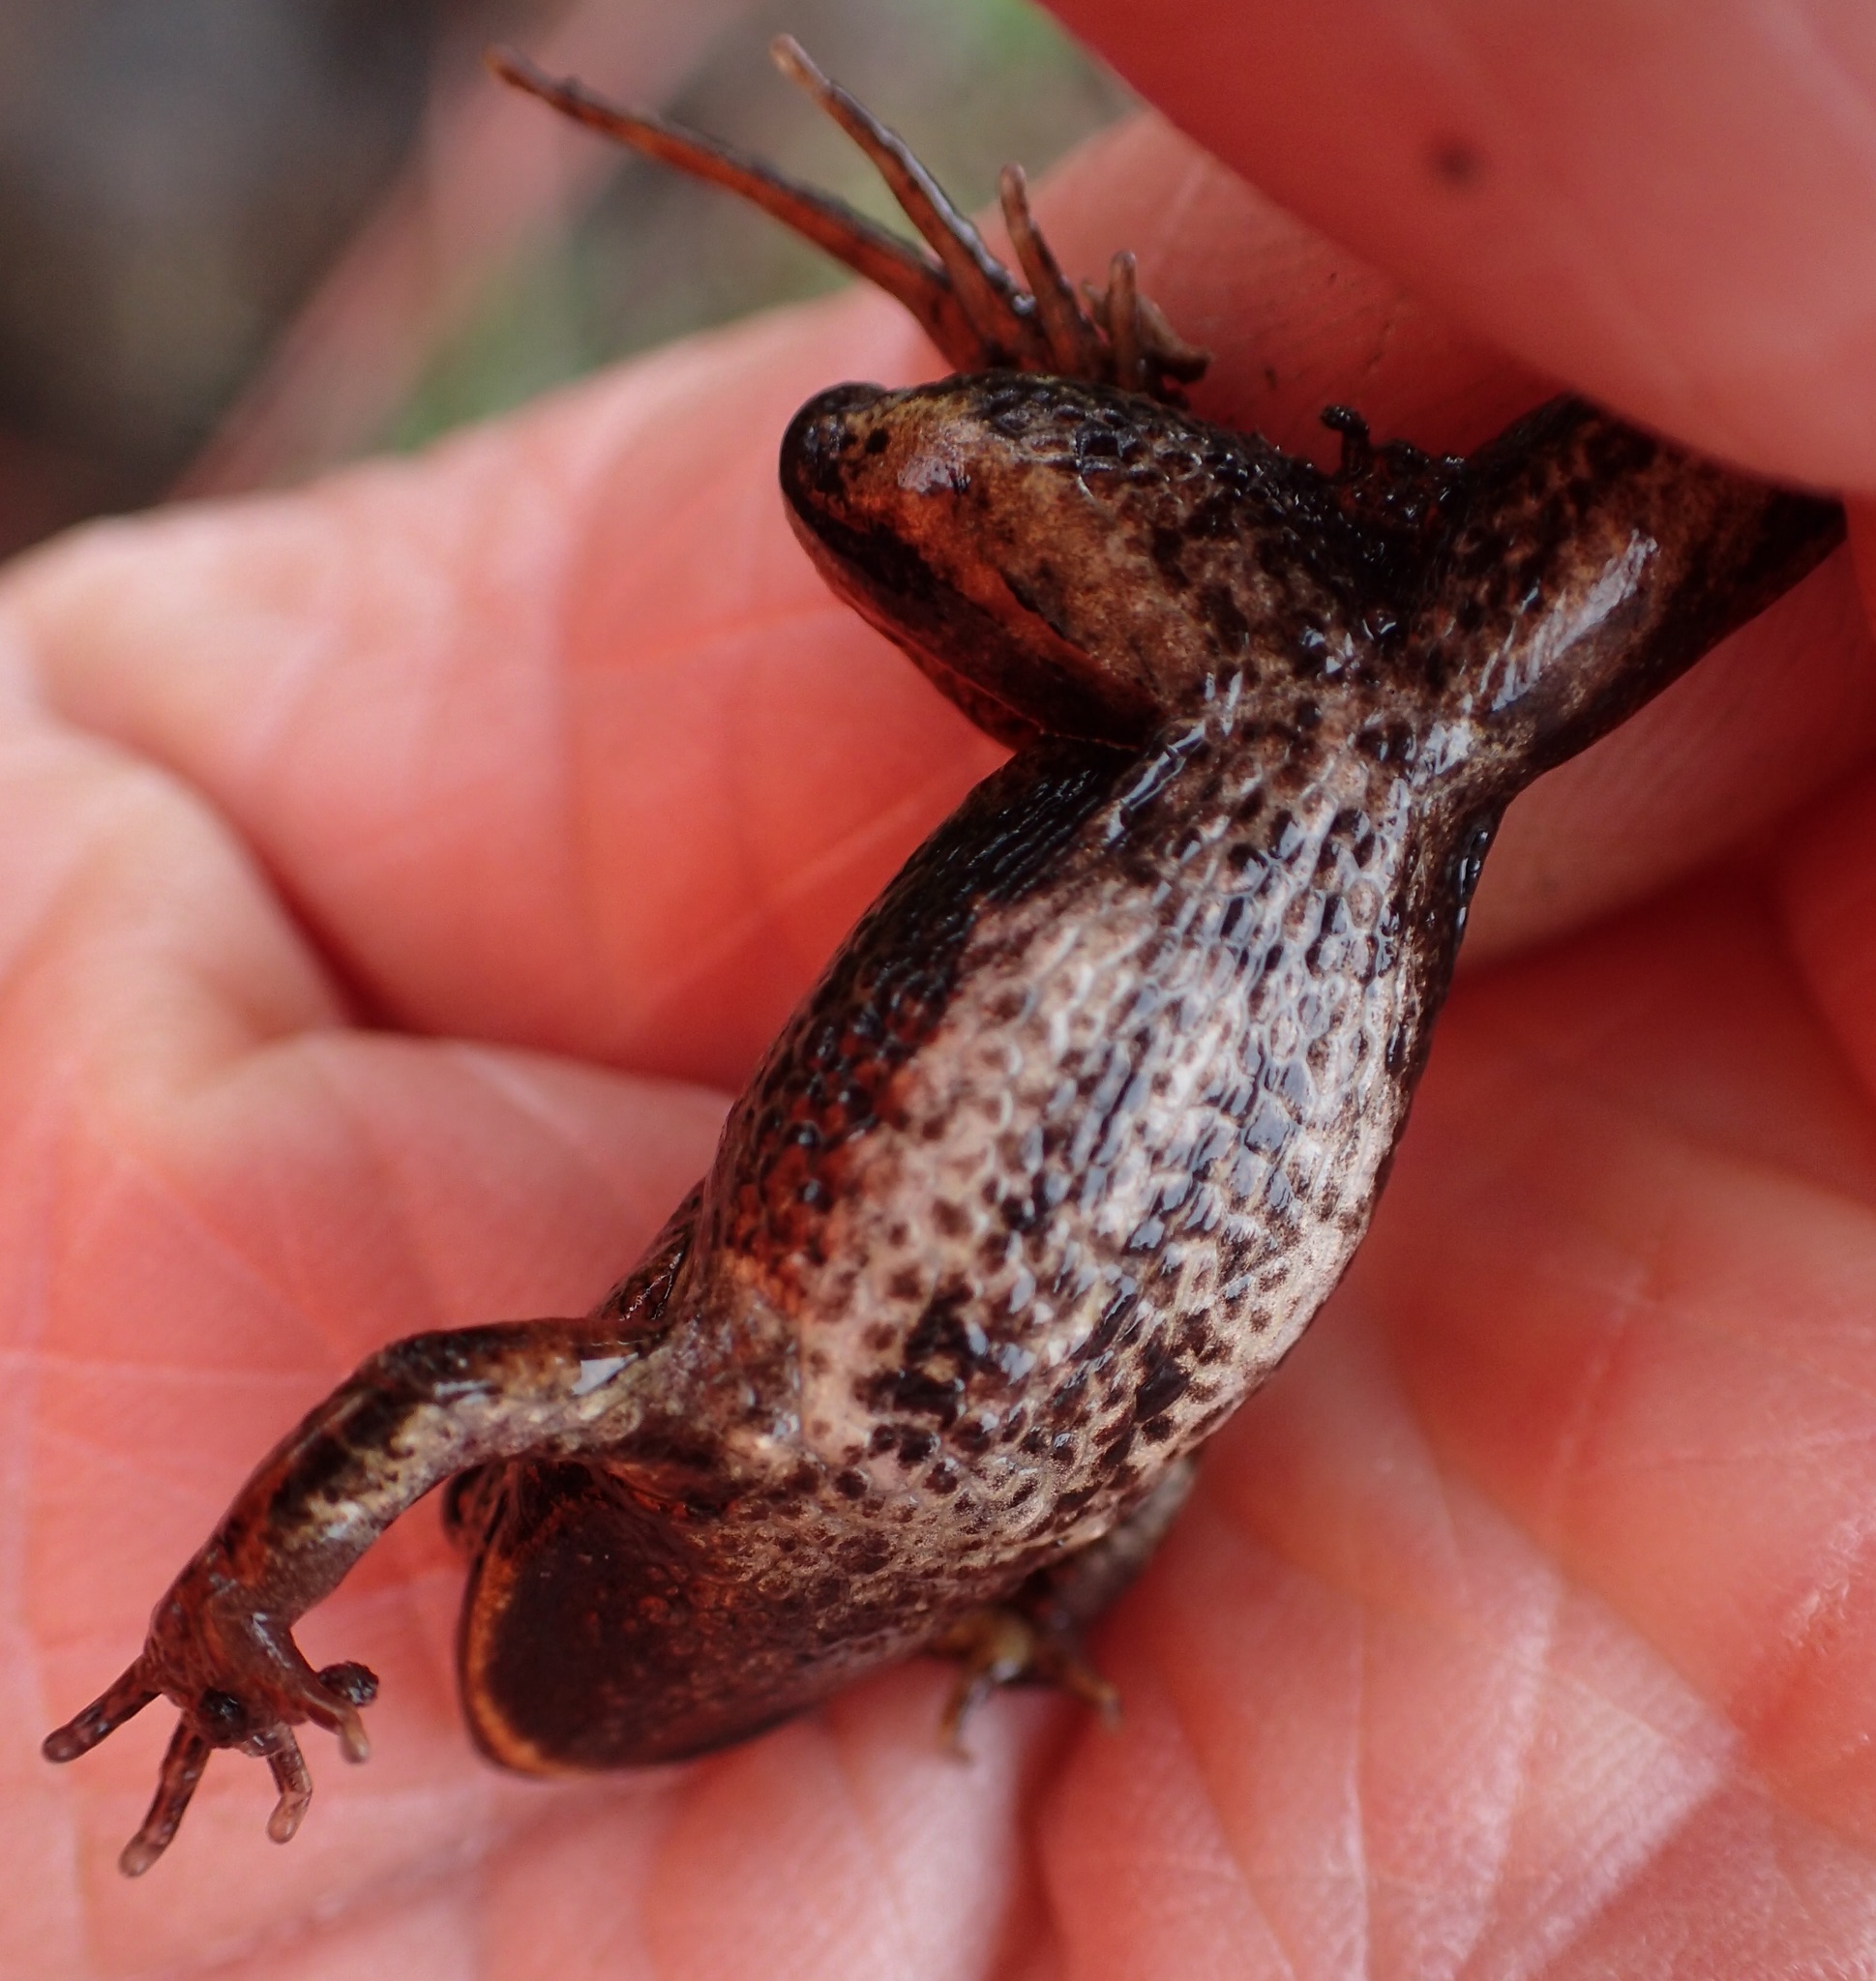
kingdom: Animalia
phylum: Chordata
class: Amphibia
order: Anura
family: Myobatrachidae
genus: Crinia
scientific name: Crinia signifera
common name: Brown froglet
